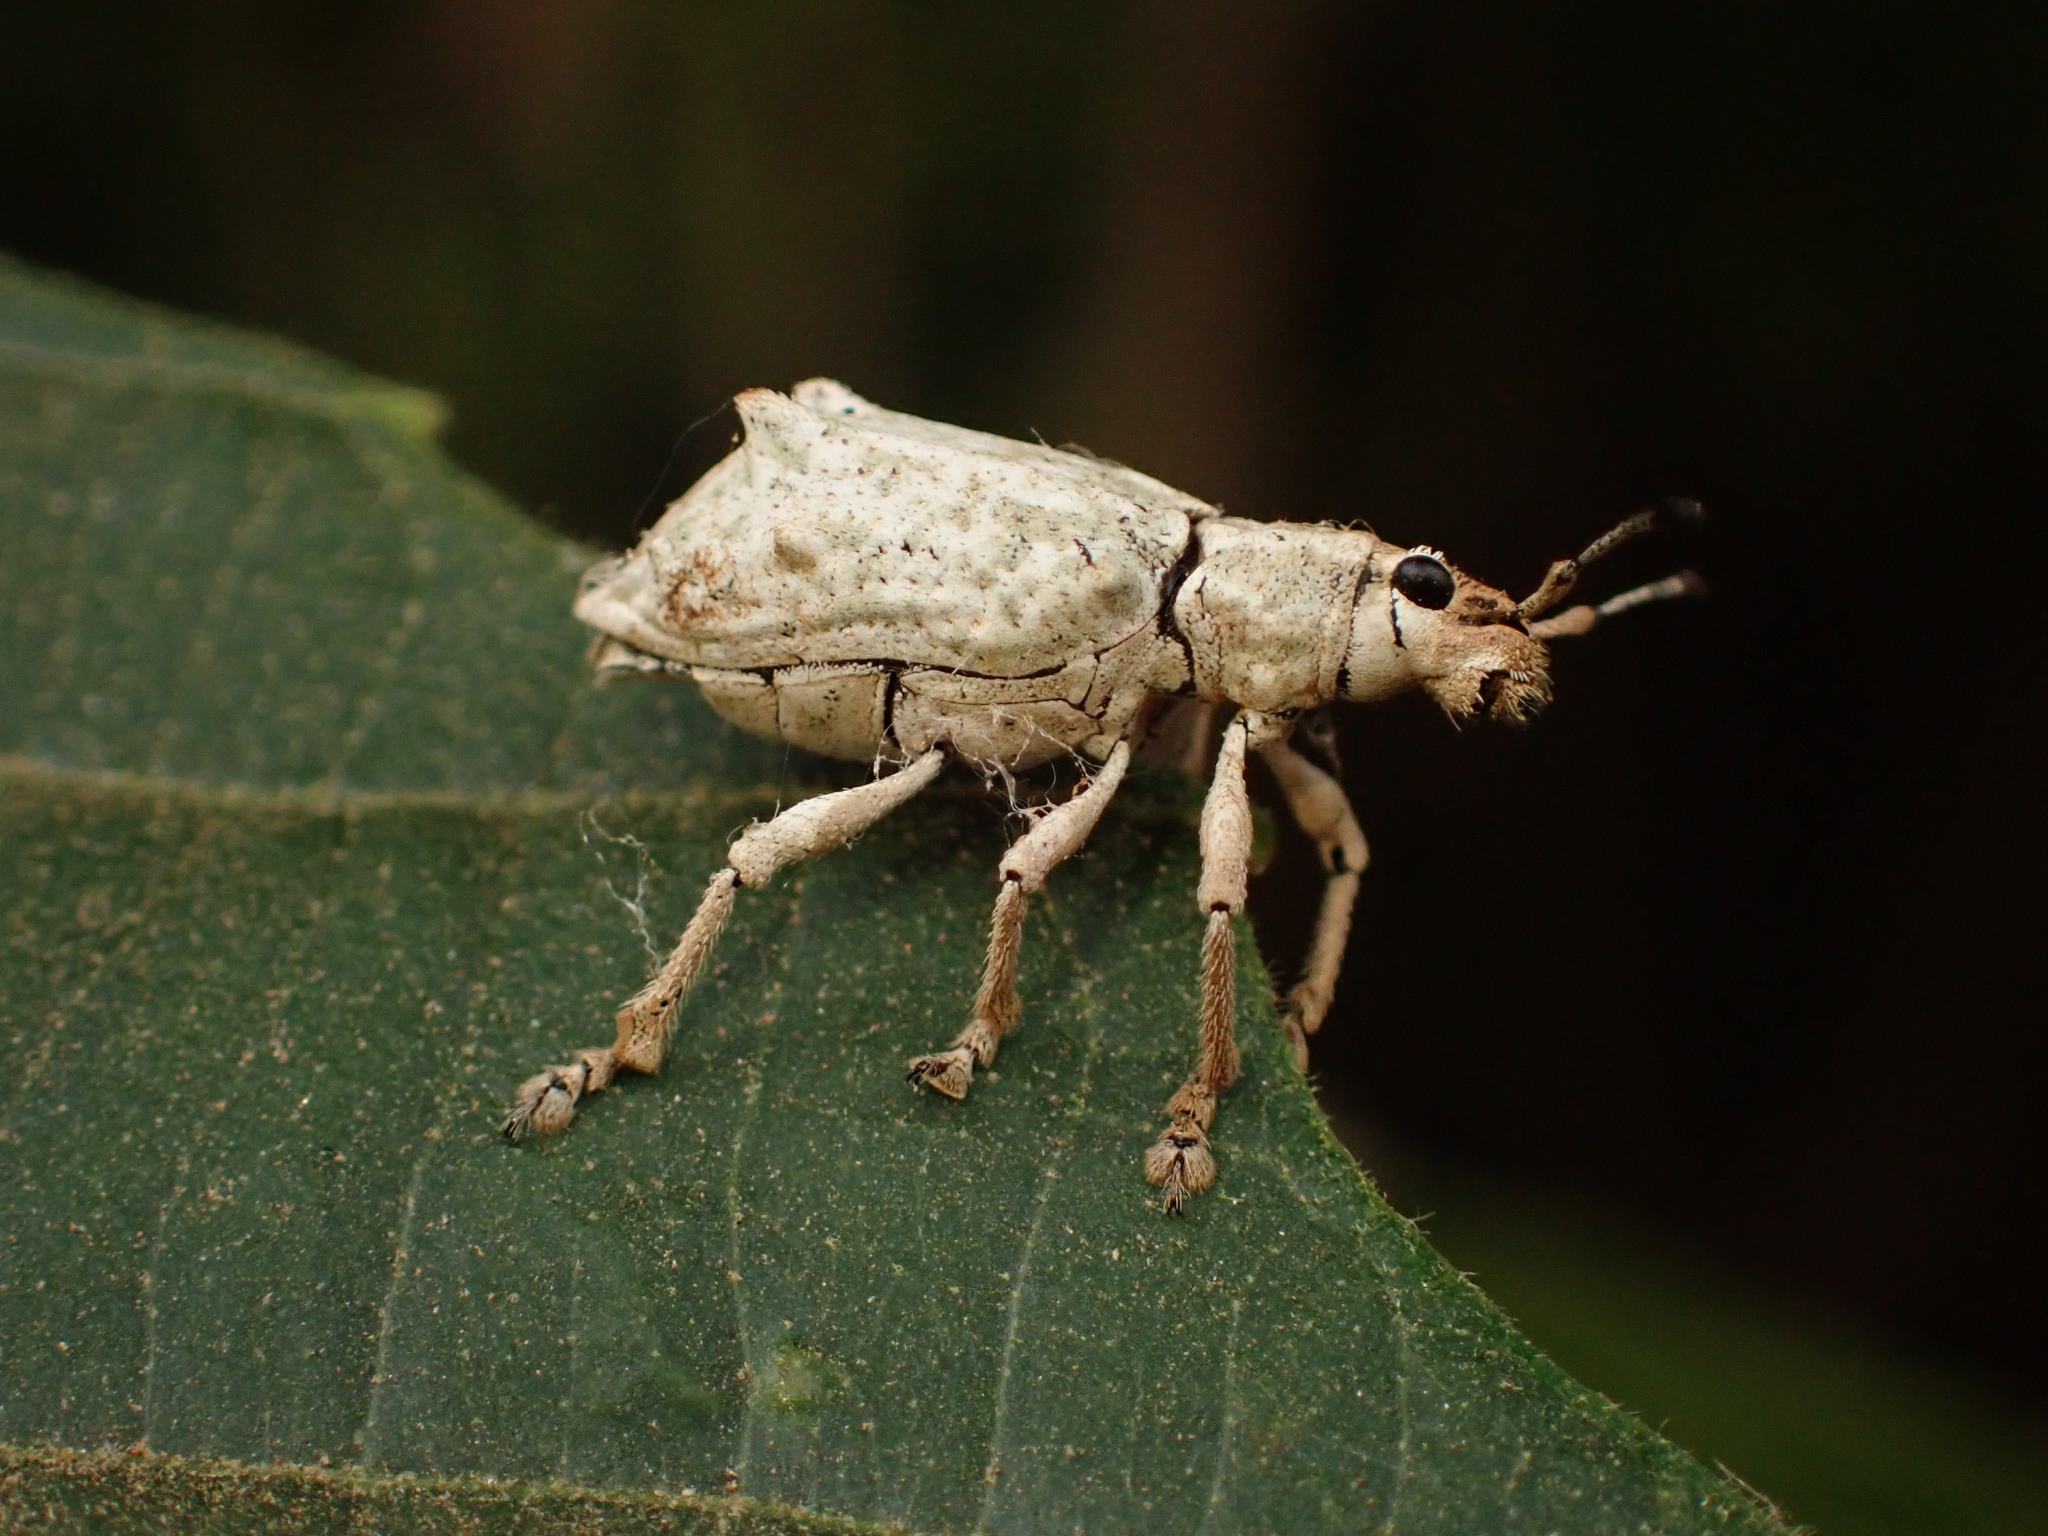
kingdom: Animalia
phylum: Arthropoda
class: Insecta
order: Coleoptera
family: Curculionidae
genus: Platyomus
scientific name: Platyomus piscatorius
